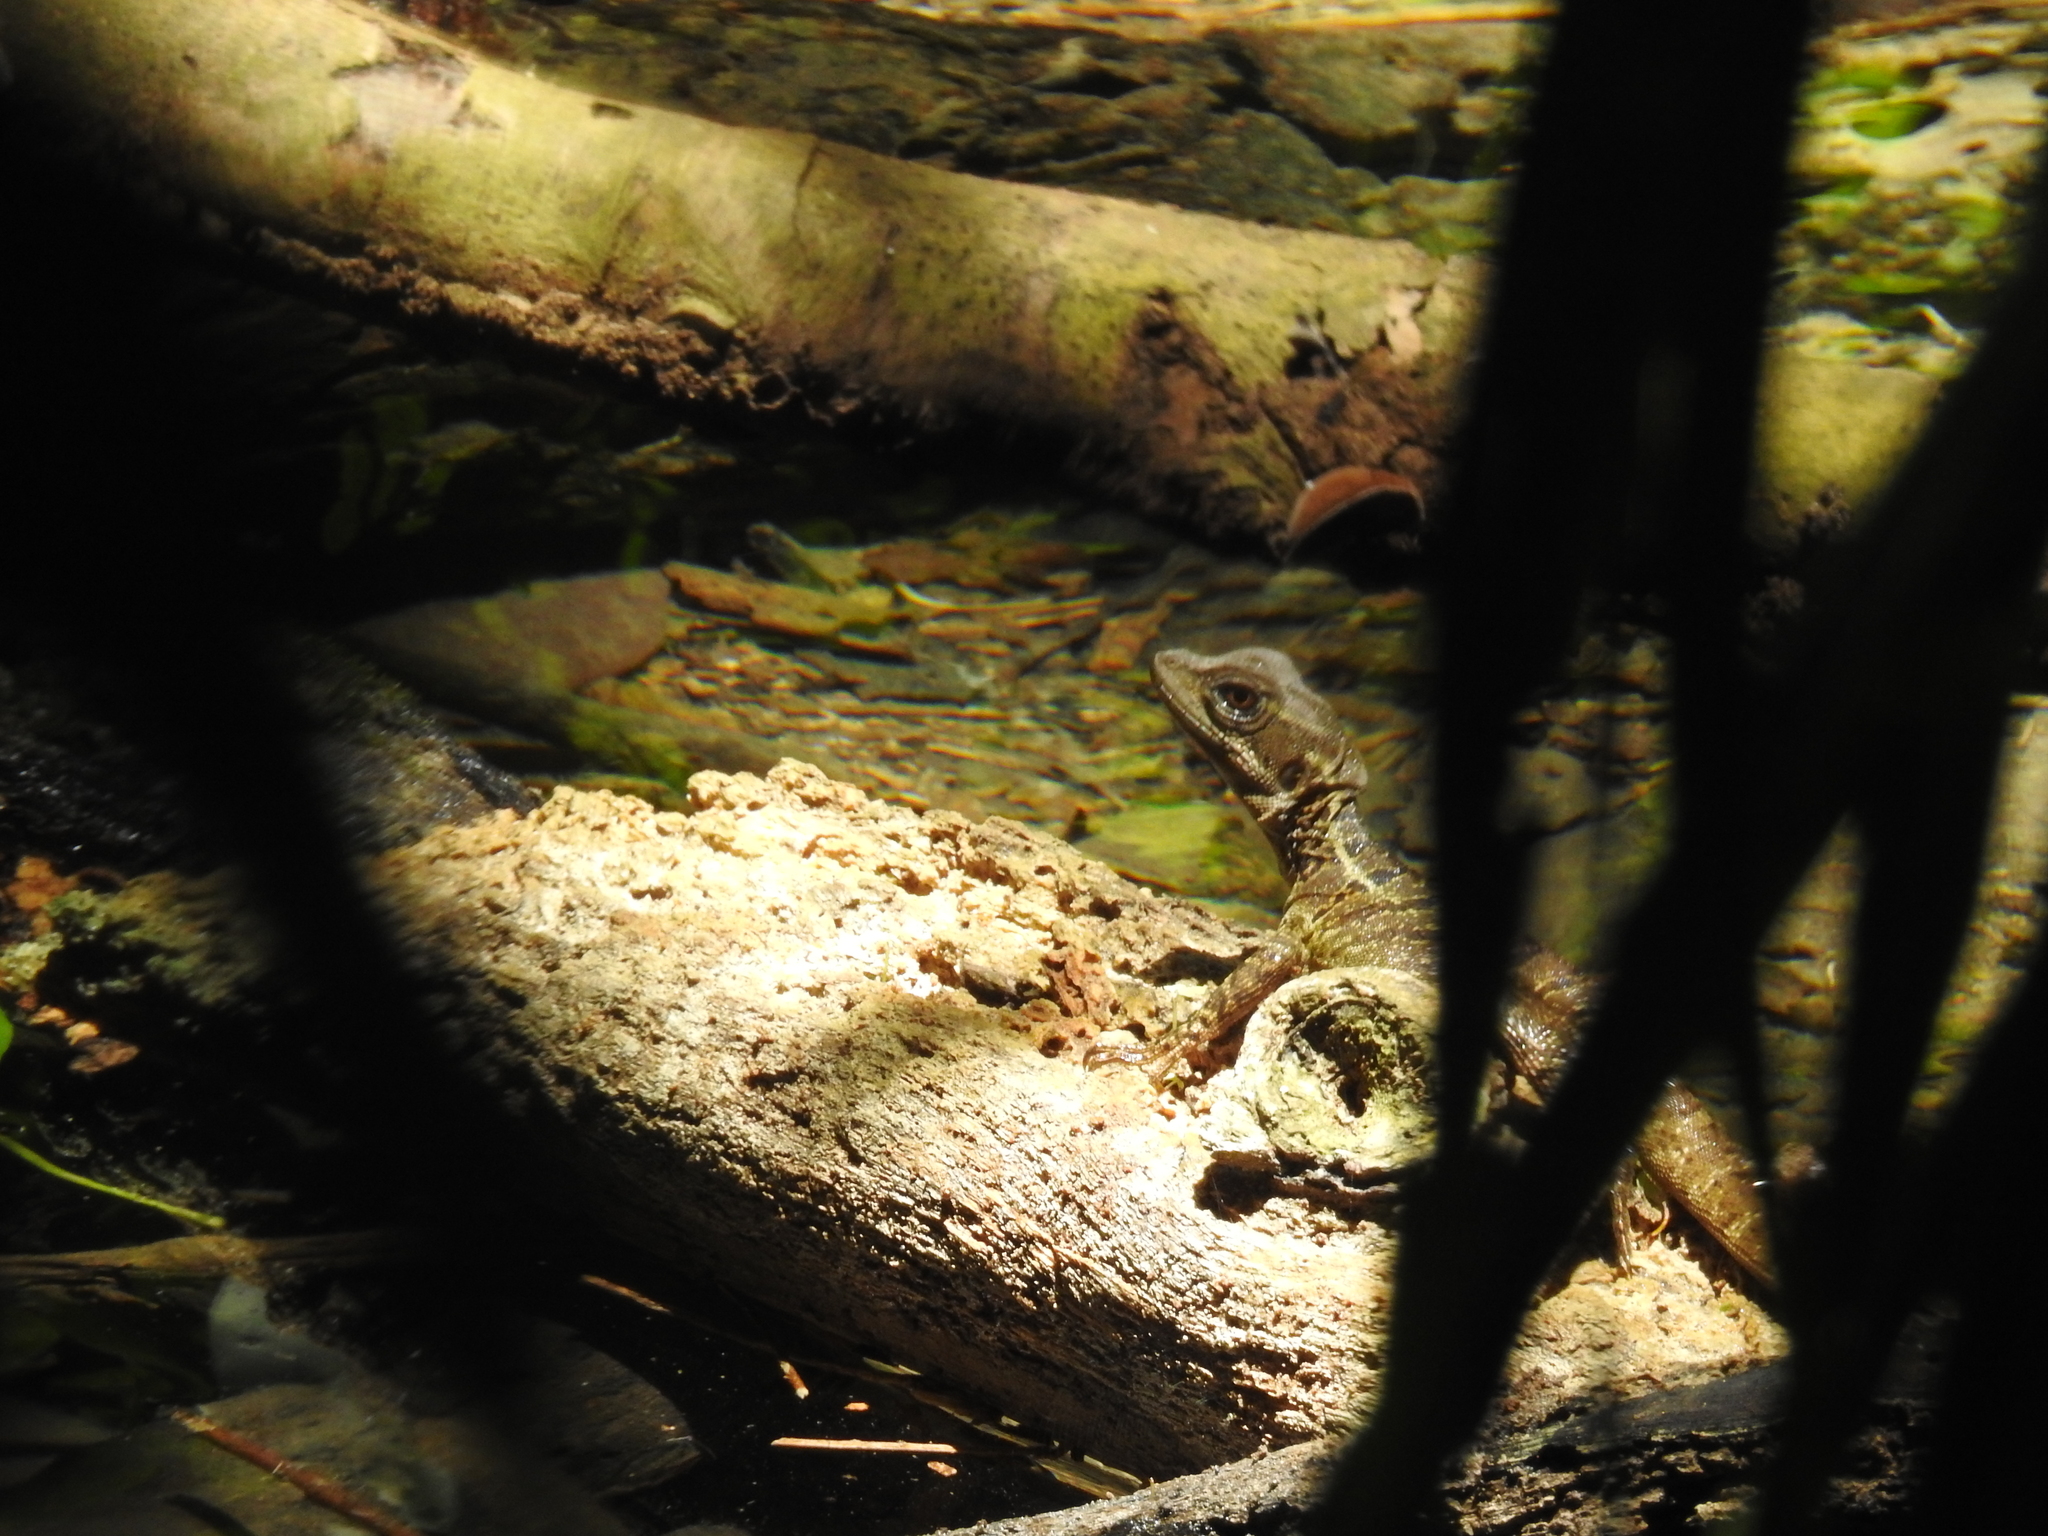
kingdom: Animalia
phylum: Chordata
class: Squamata
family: Corytophanidae
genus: Basiliscus
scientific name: Basiliscus basiliscus
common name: Common basilisk
